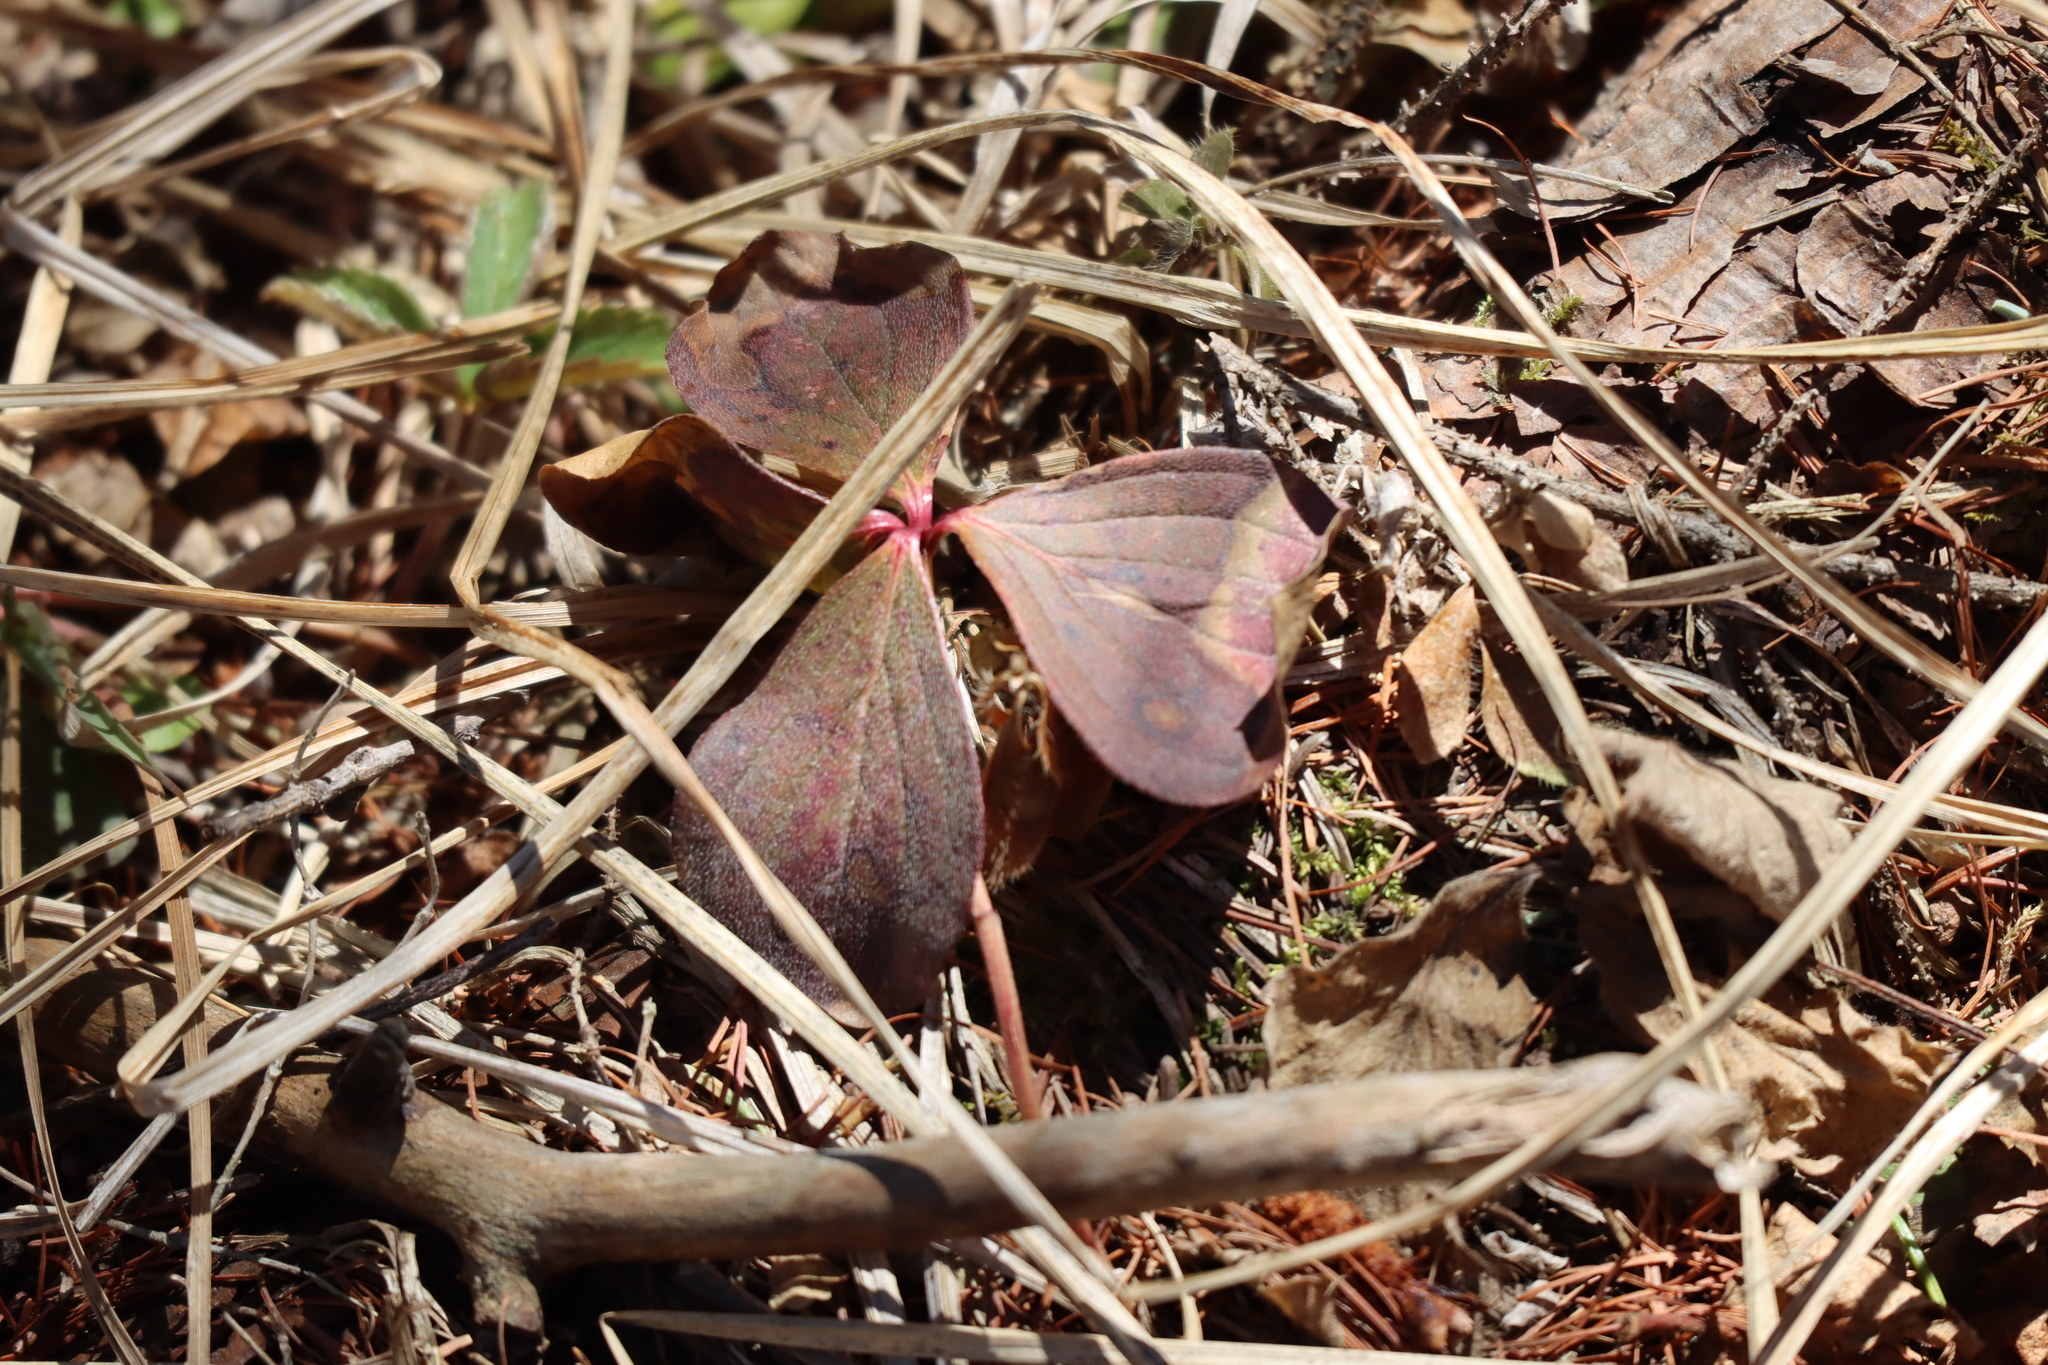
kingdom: Plantae
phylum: Tracheophyta
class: Magnoliopsida
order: Cornales
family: Cornaceae
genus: Cornus
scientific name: Cornus canadensis
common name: Creeping dogwood
